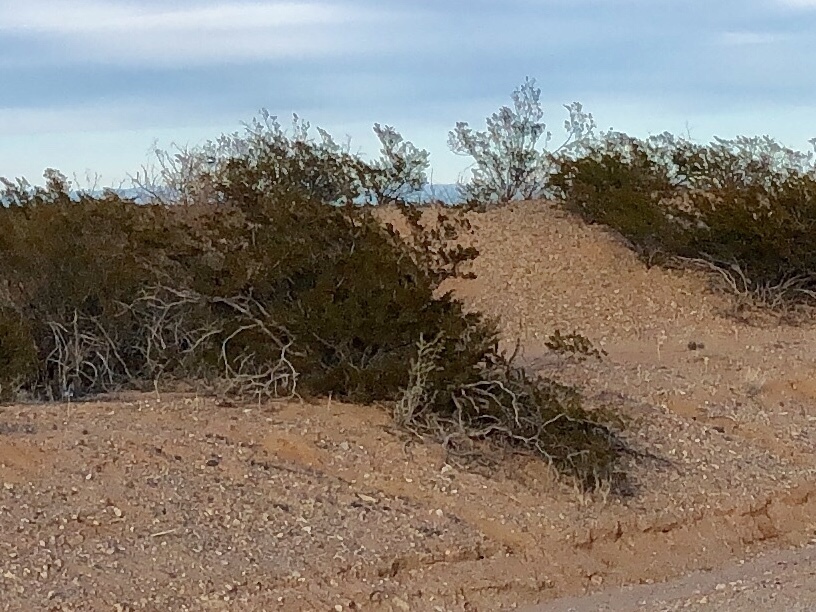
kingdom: Plantae
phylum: Tracheophyta
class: Magnoliopsida
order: Zygophyllales
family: Zygophyllaceae
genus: Larrea
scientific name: Larrea tridentata
